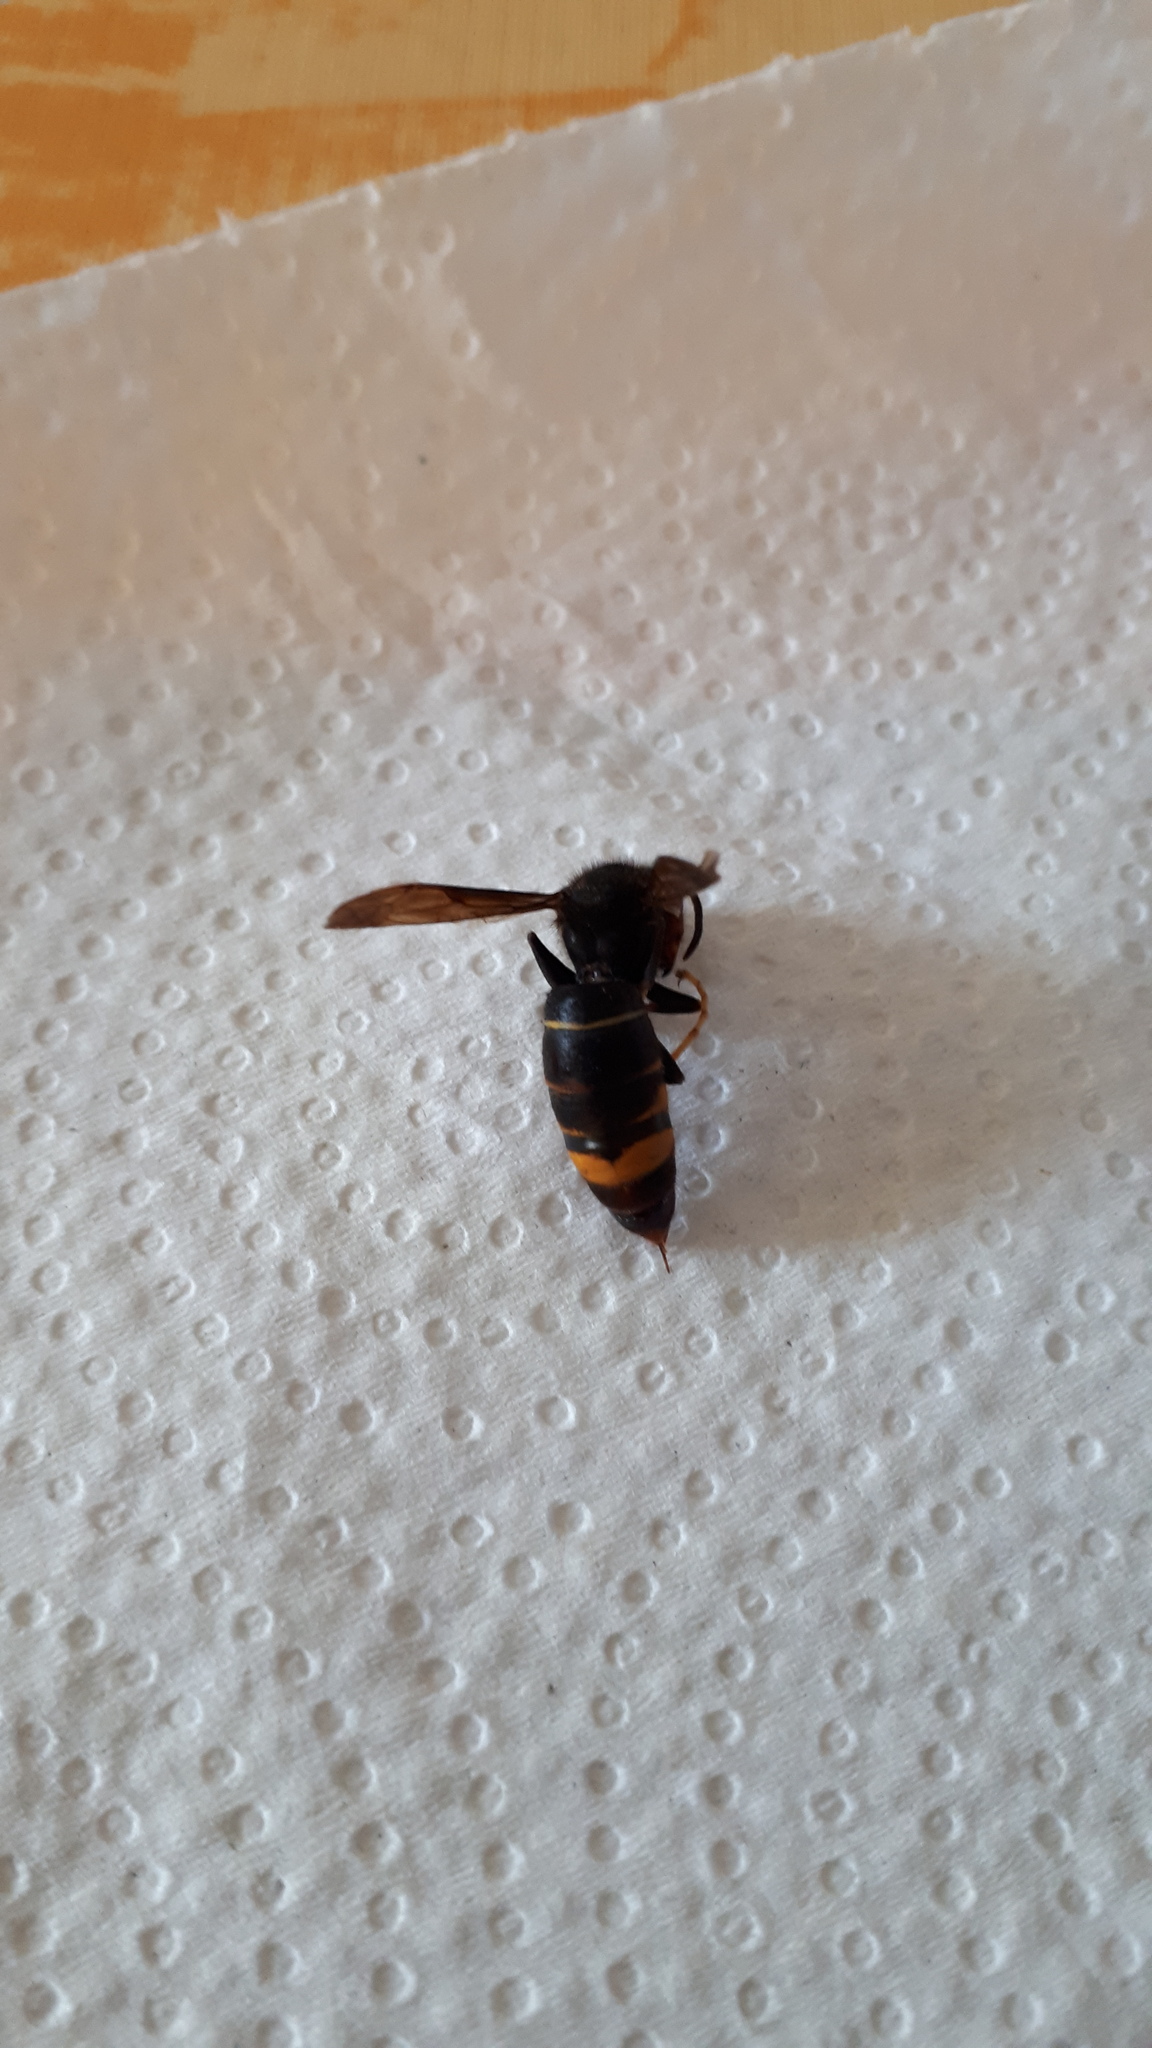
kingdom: Animalia
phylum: Arthropoda
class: Insecta
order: Hymenoptera
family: Vespidae
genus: Vespa
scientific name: Vespa velutina
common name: Asian hornet
